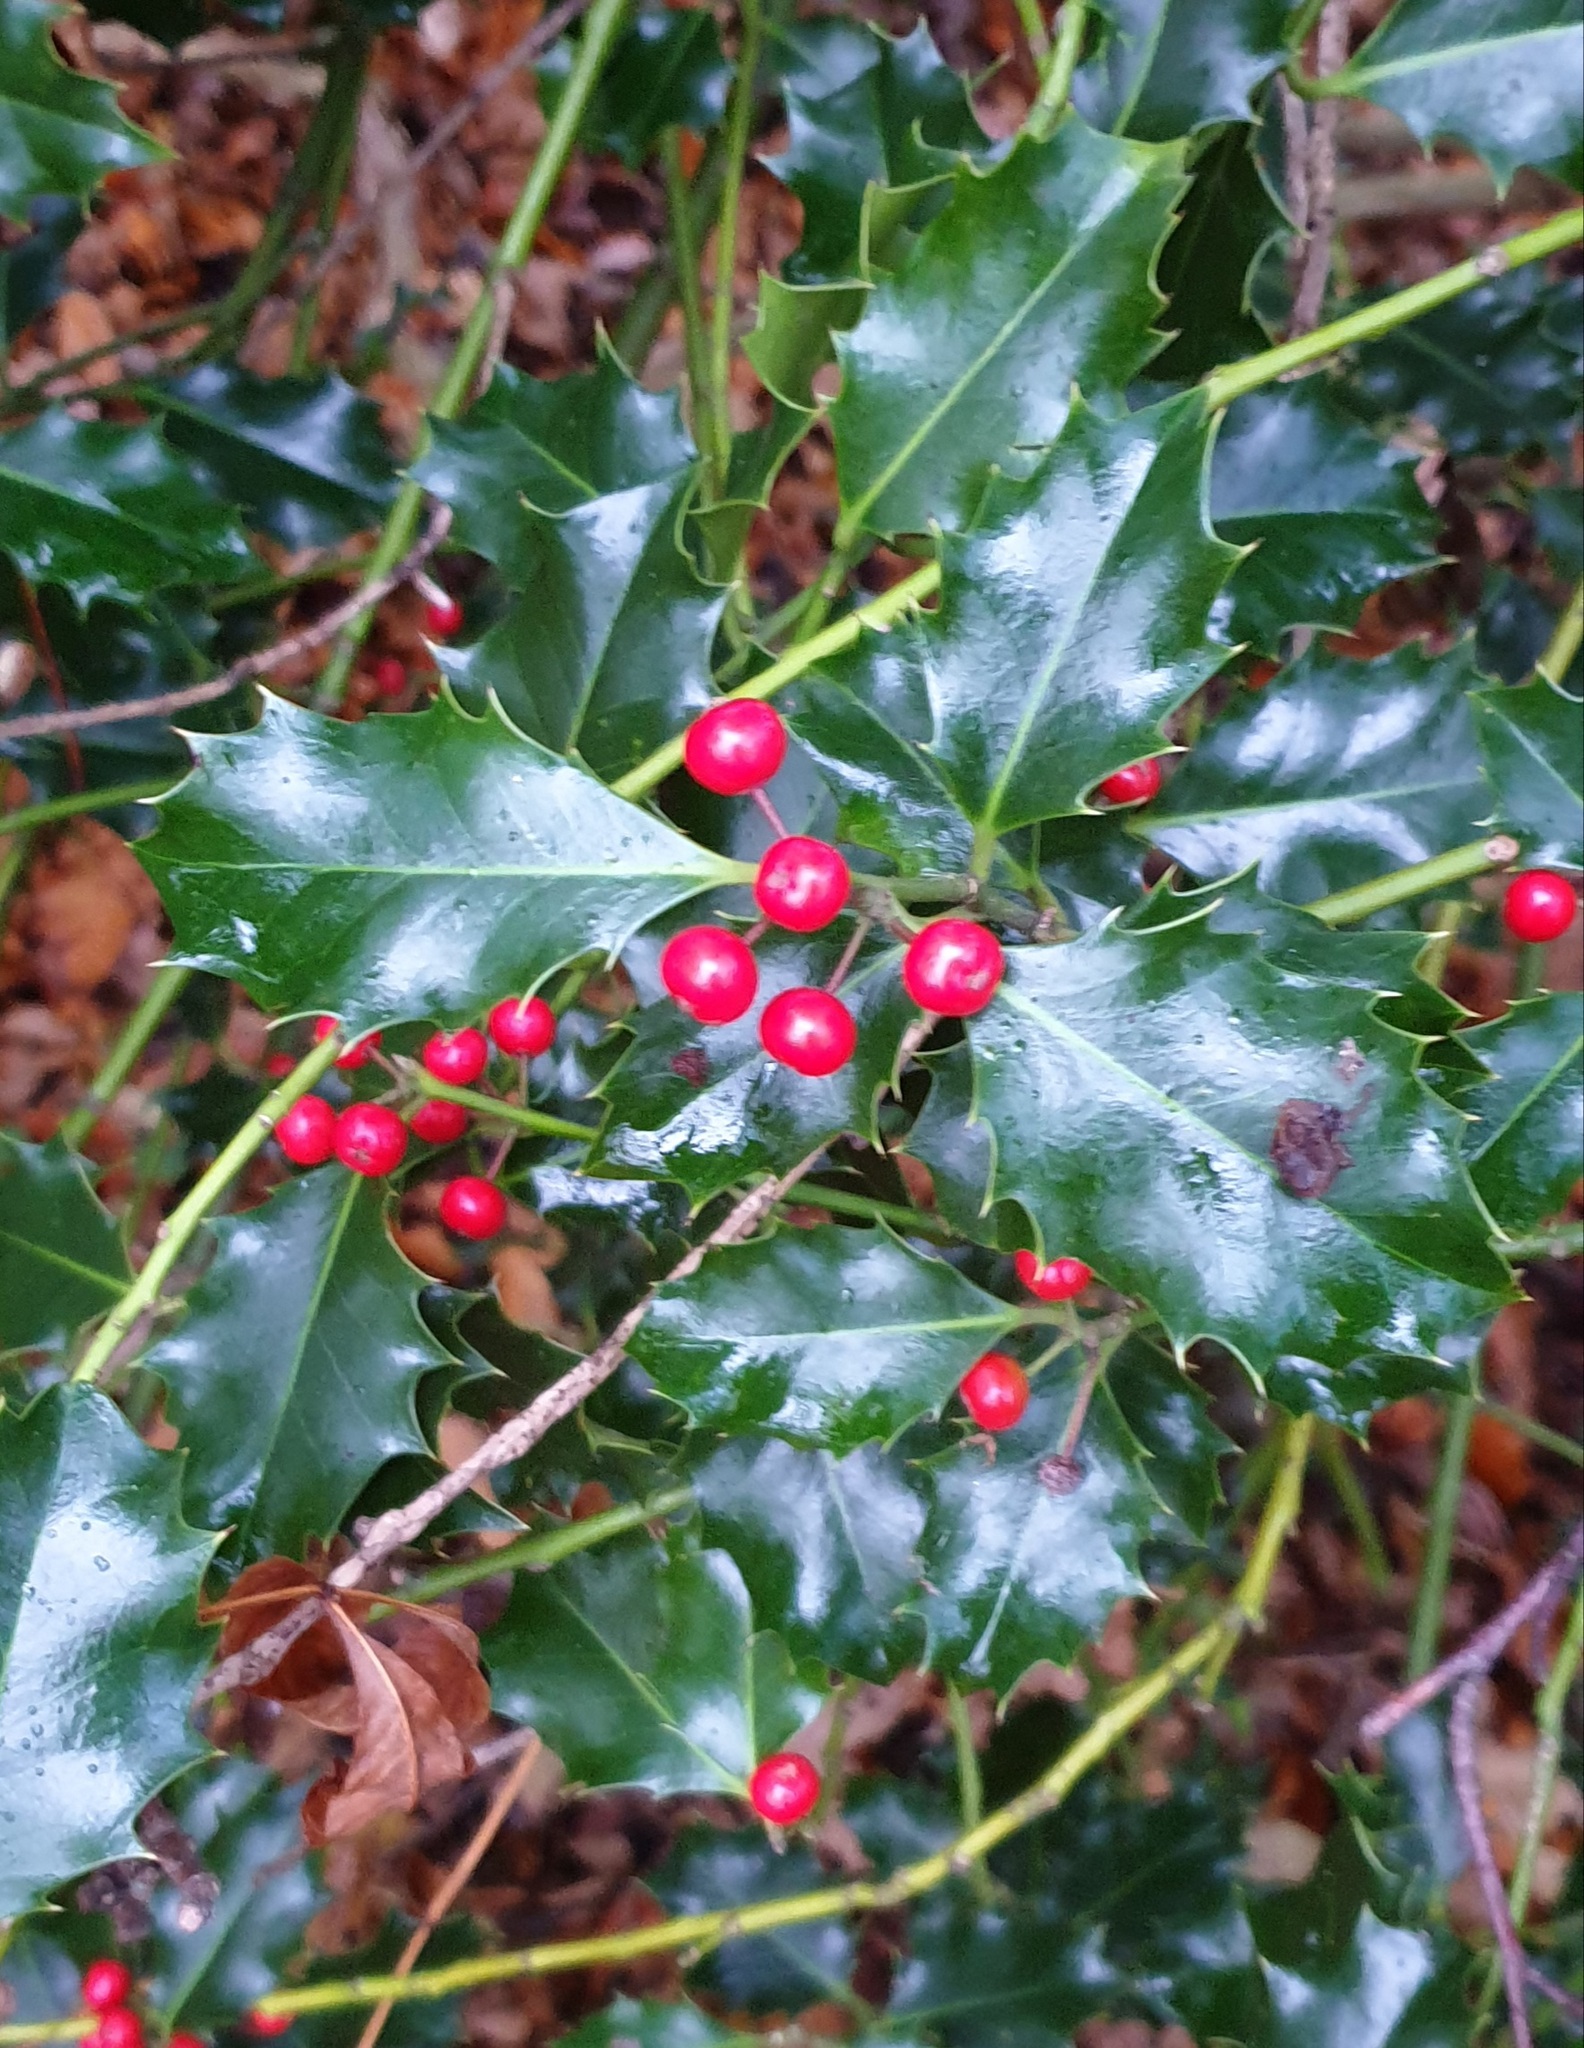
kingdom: Plantae
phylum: Tracheophyta
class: Magnoliopsida
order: Aquifoliales
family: Aquifoliaceae
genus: Ilex
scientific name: Ilex aquifolium
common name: English holly
